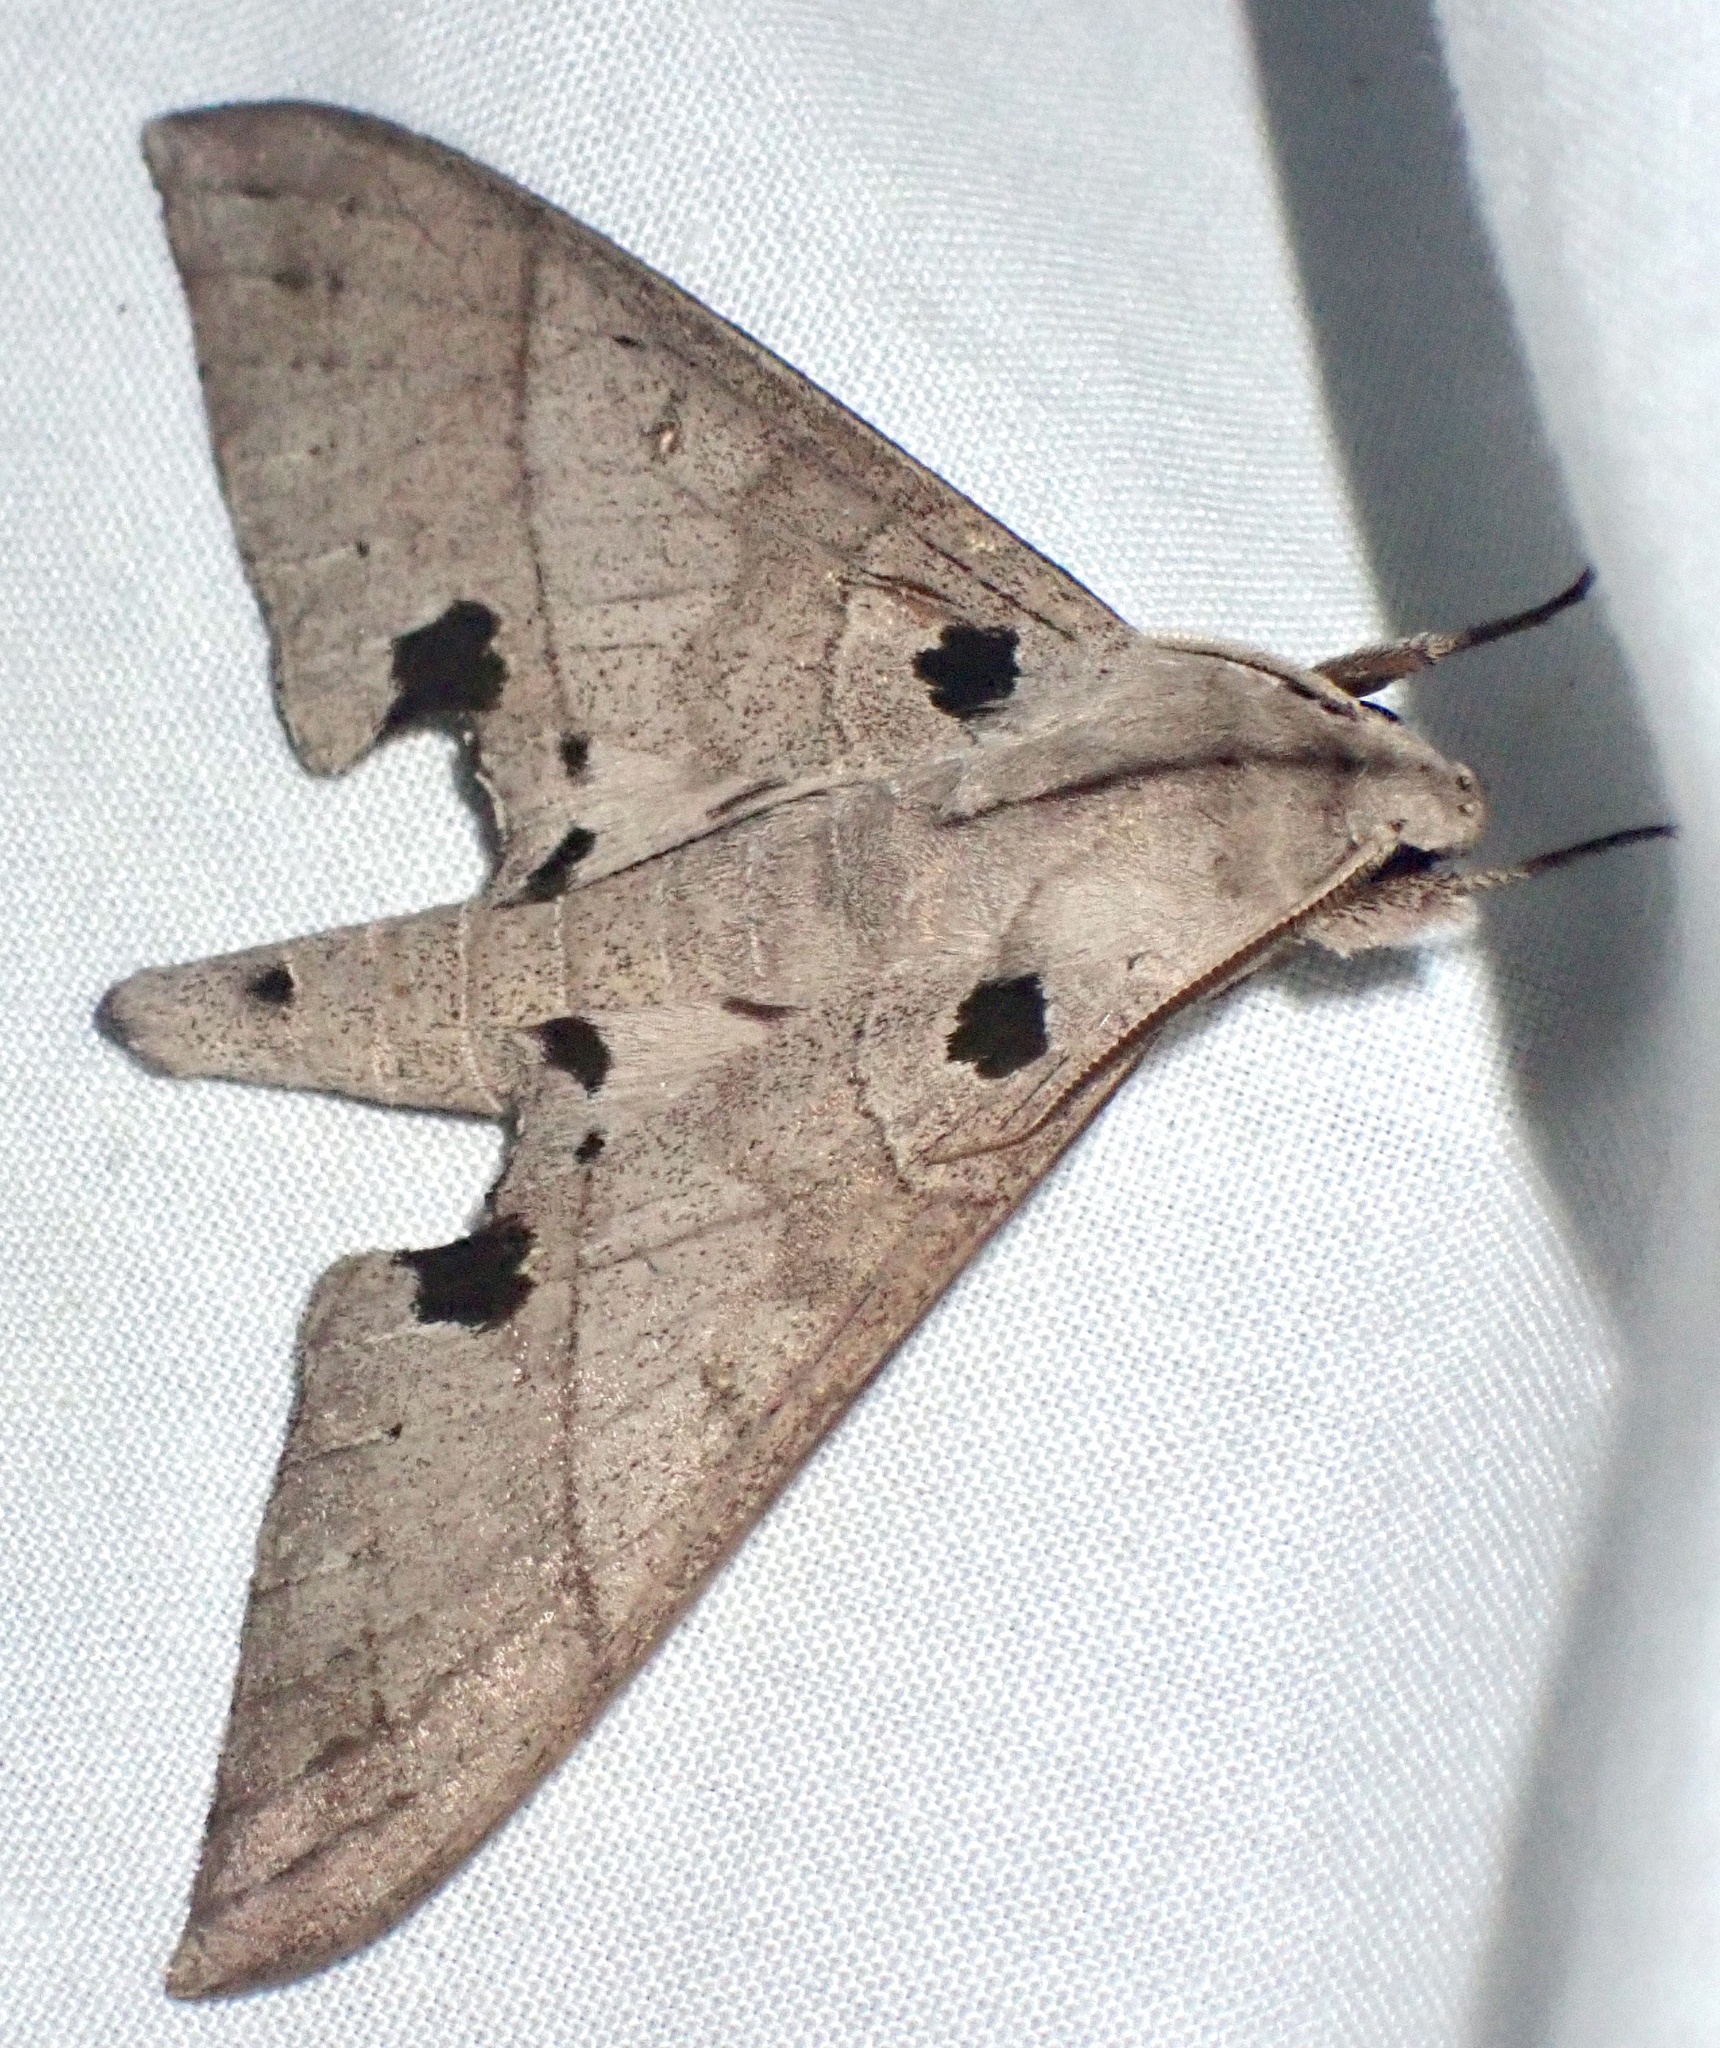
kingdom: Animalia
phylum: Arthropoda
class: Insecta
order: Lepidoptera
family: Sphingidae
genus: Polyptychus
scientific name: Polyptychus carteri
